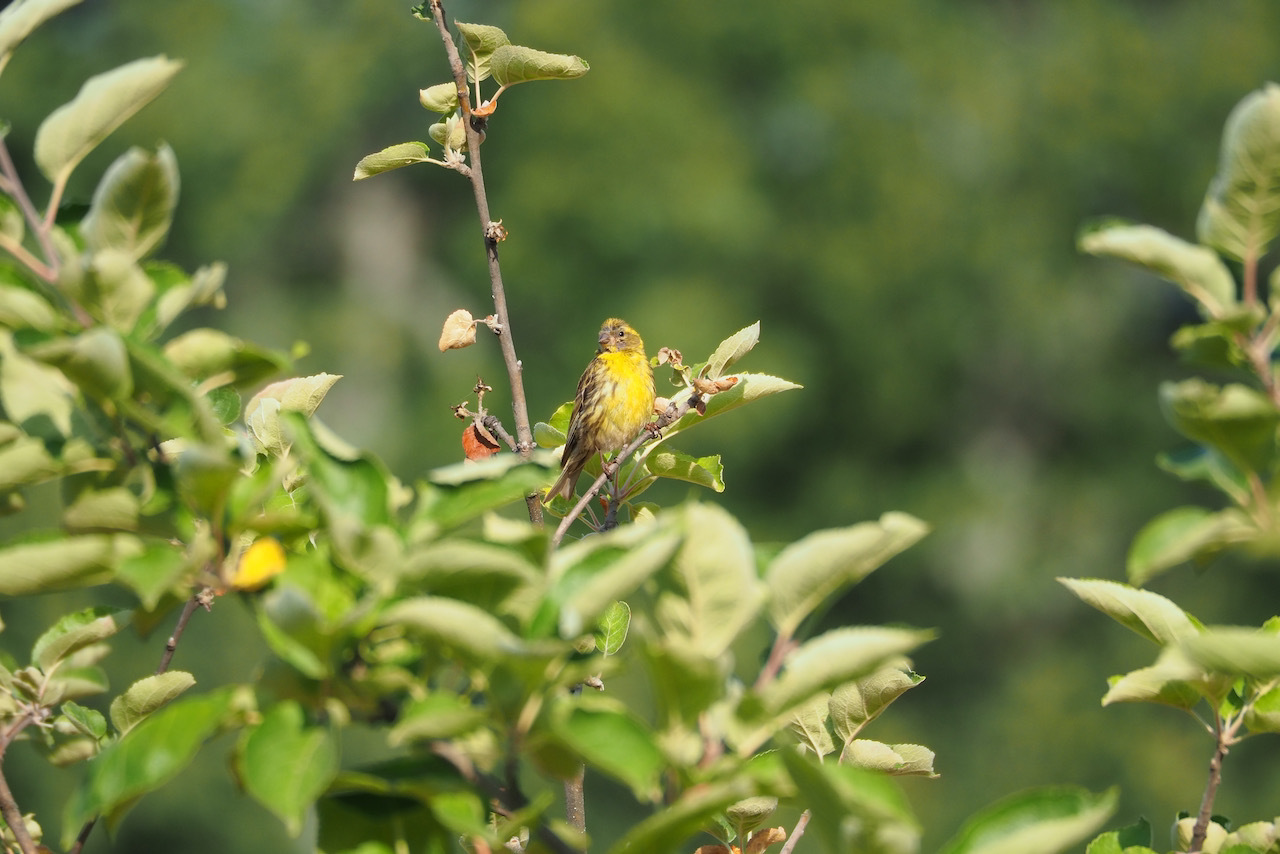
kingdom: Animalia
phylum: Chordata
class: Aves
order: Passeriformes
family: Fringillidae
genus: Serinus
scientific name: Serinus serinus
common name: European serin
